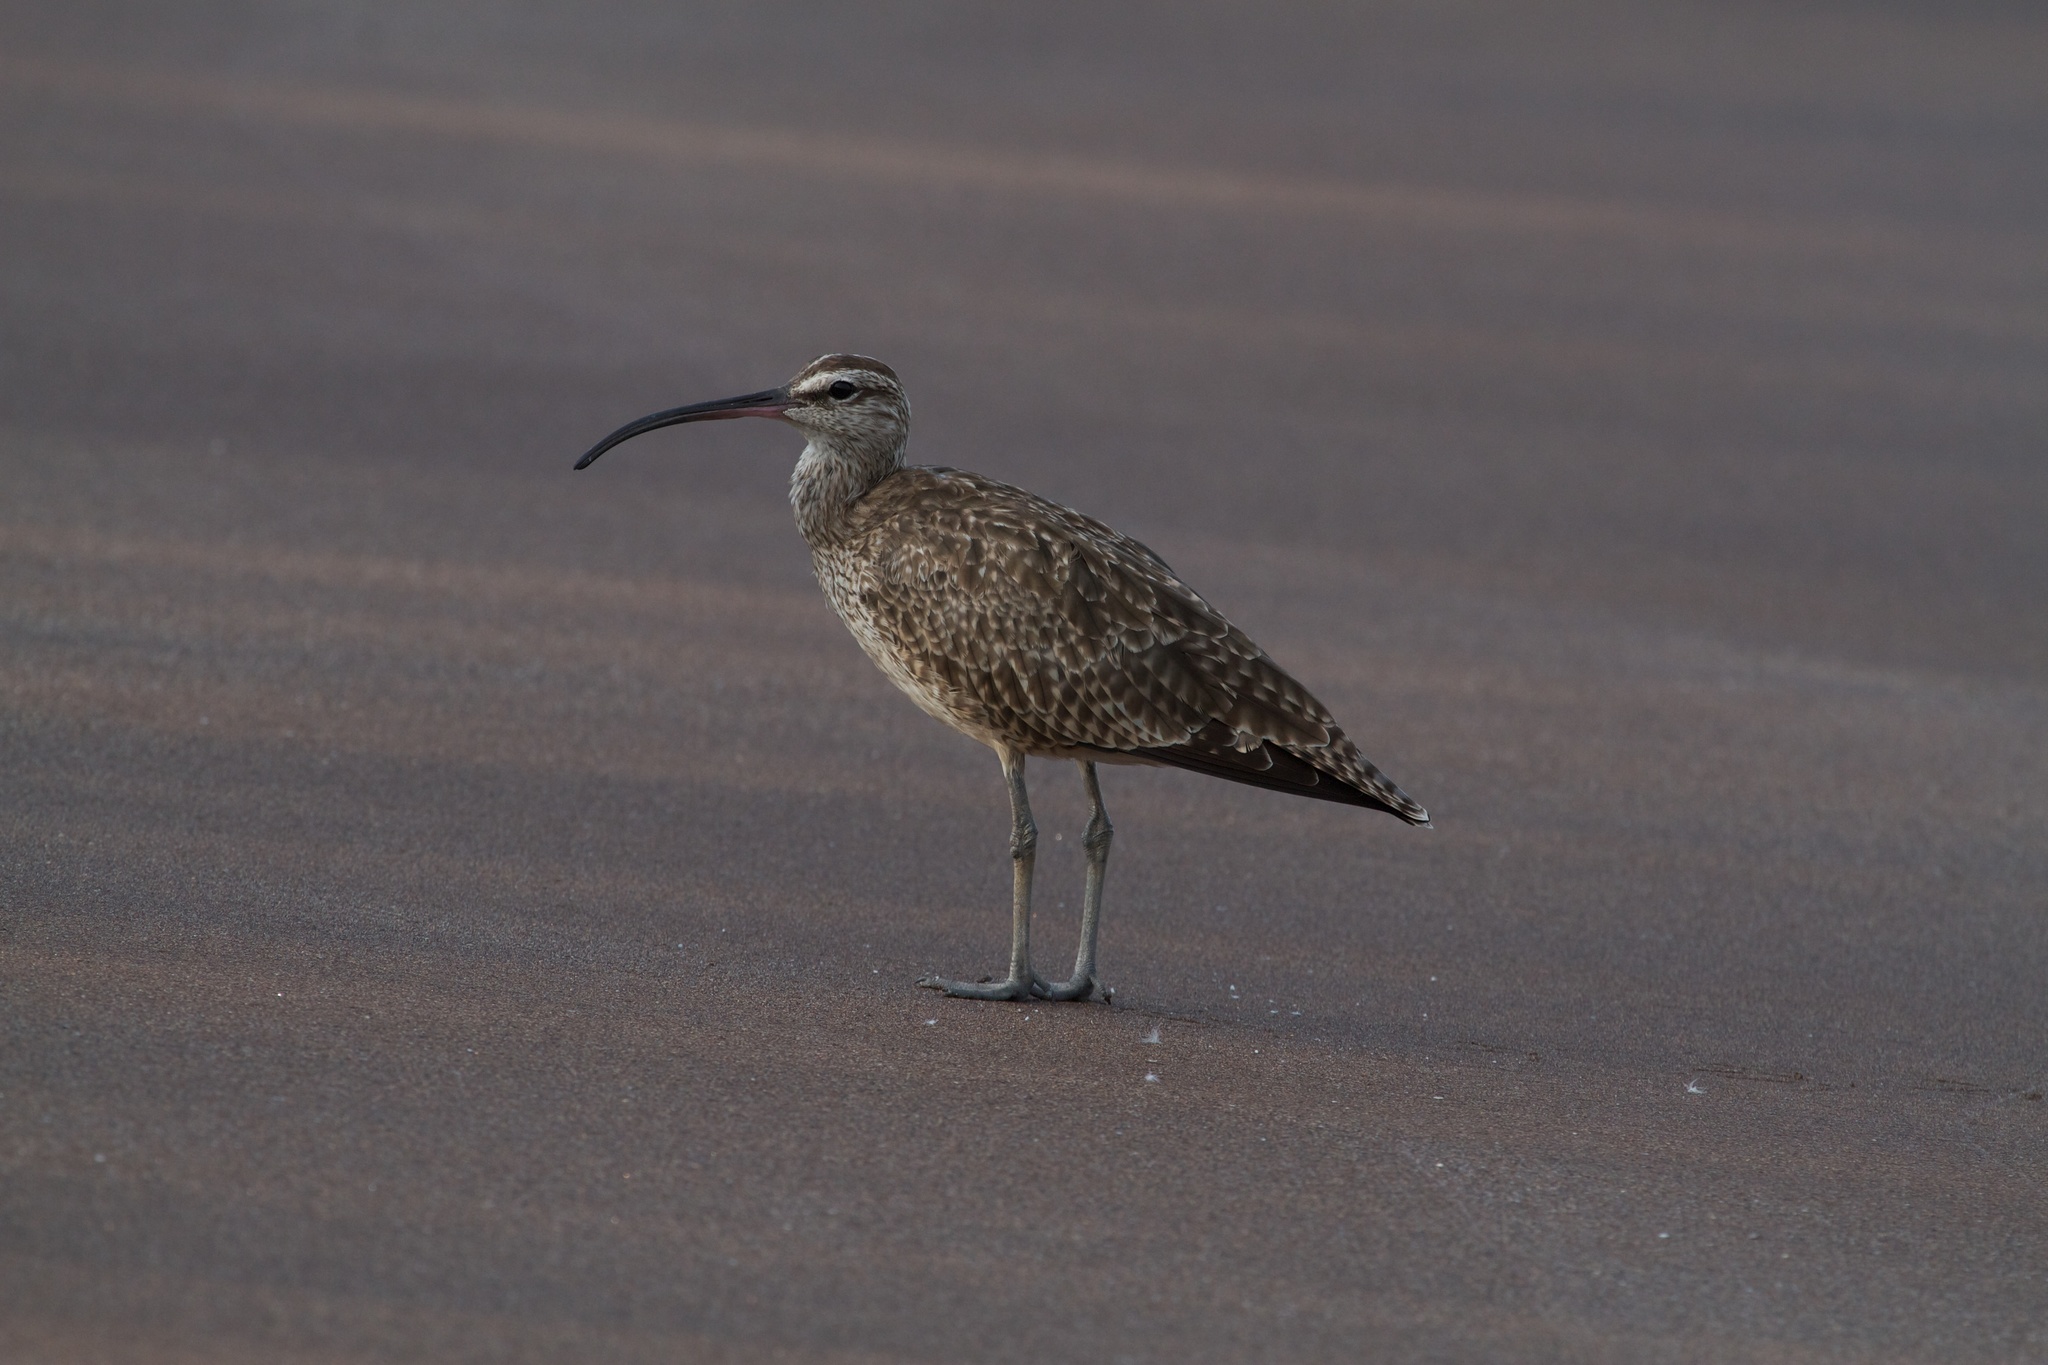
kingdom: Animalia
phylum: Chordata
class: Aves
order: Charadriiformes
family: Scolopacidae
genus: Numenius
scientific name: Numenius phaeopus
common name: Whimbrel
